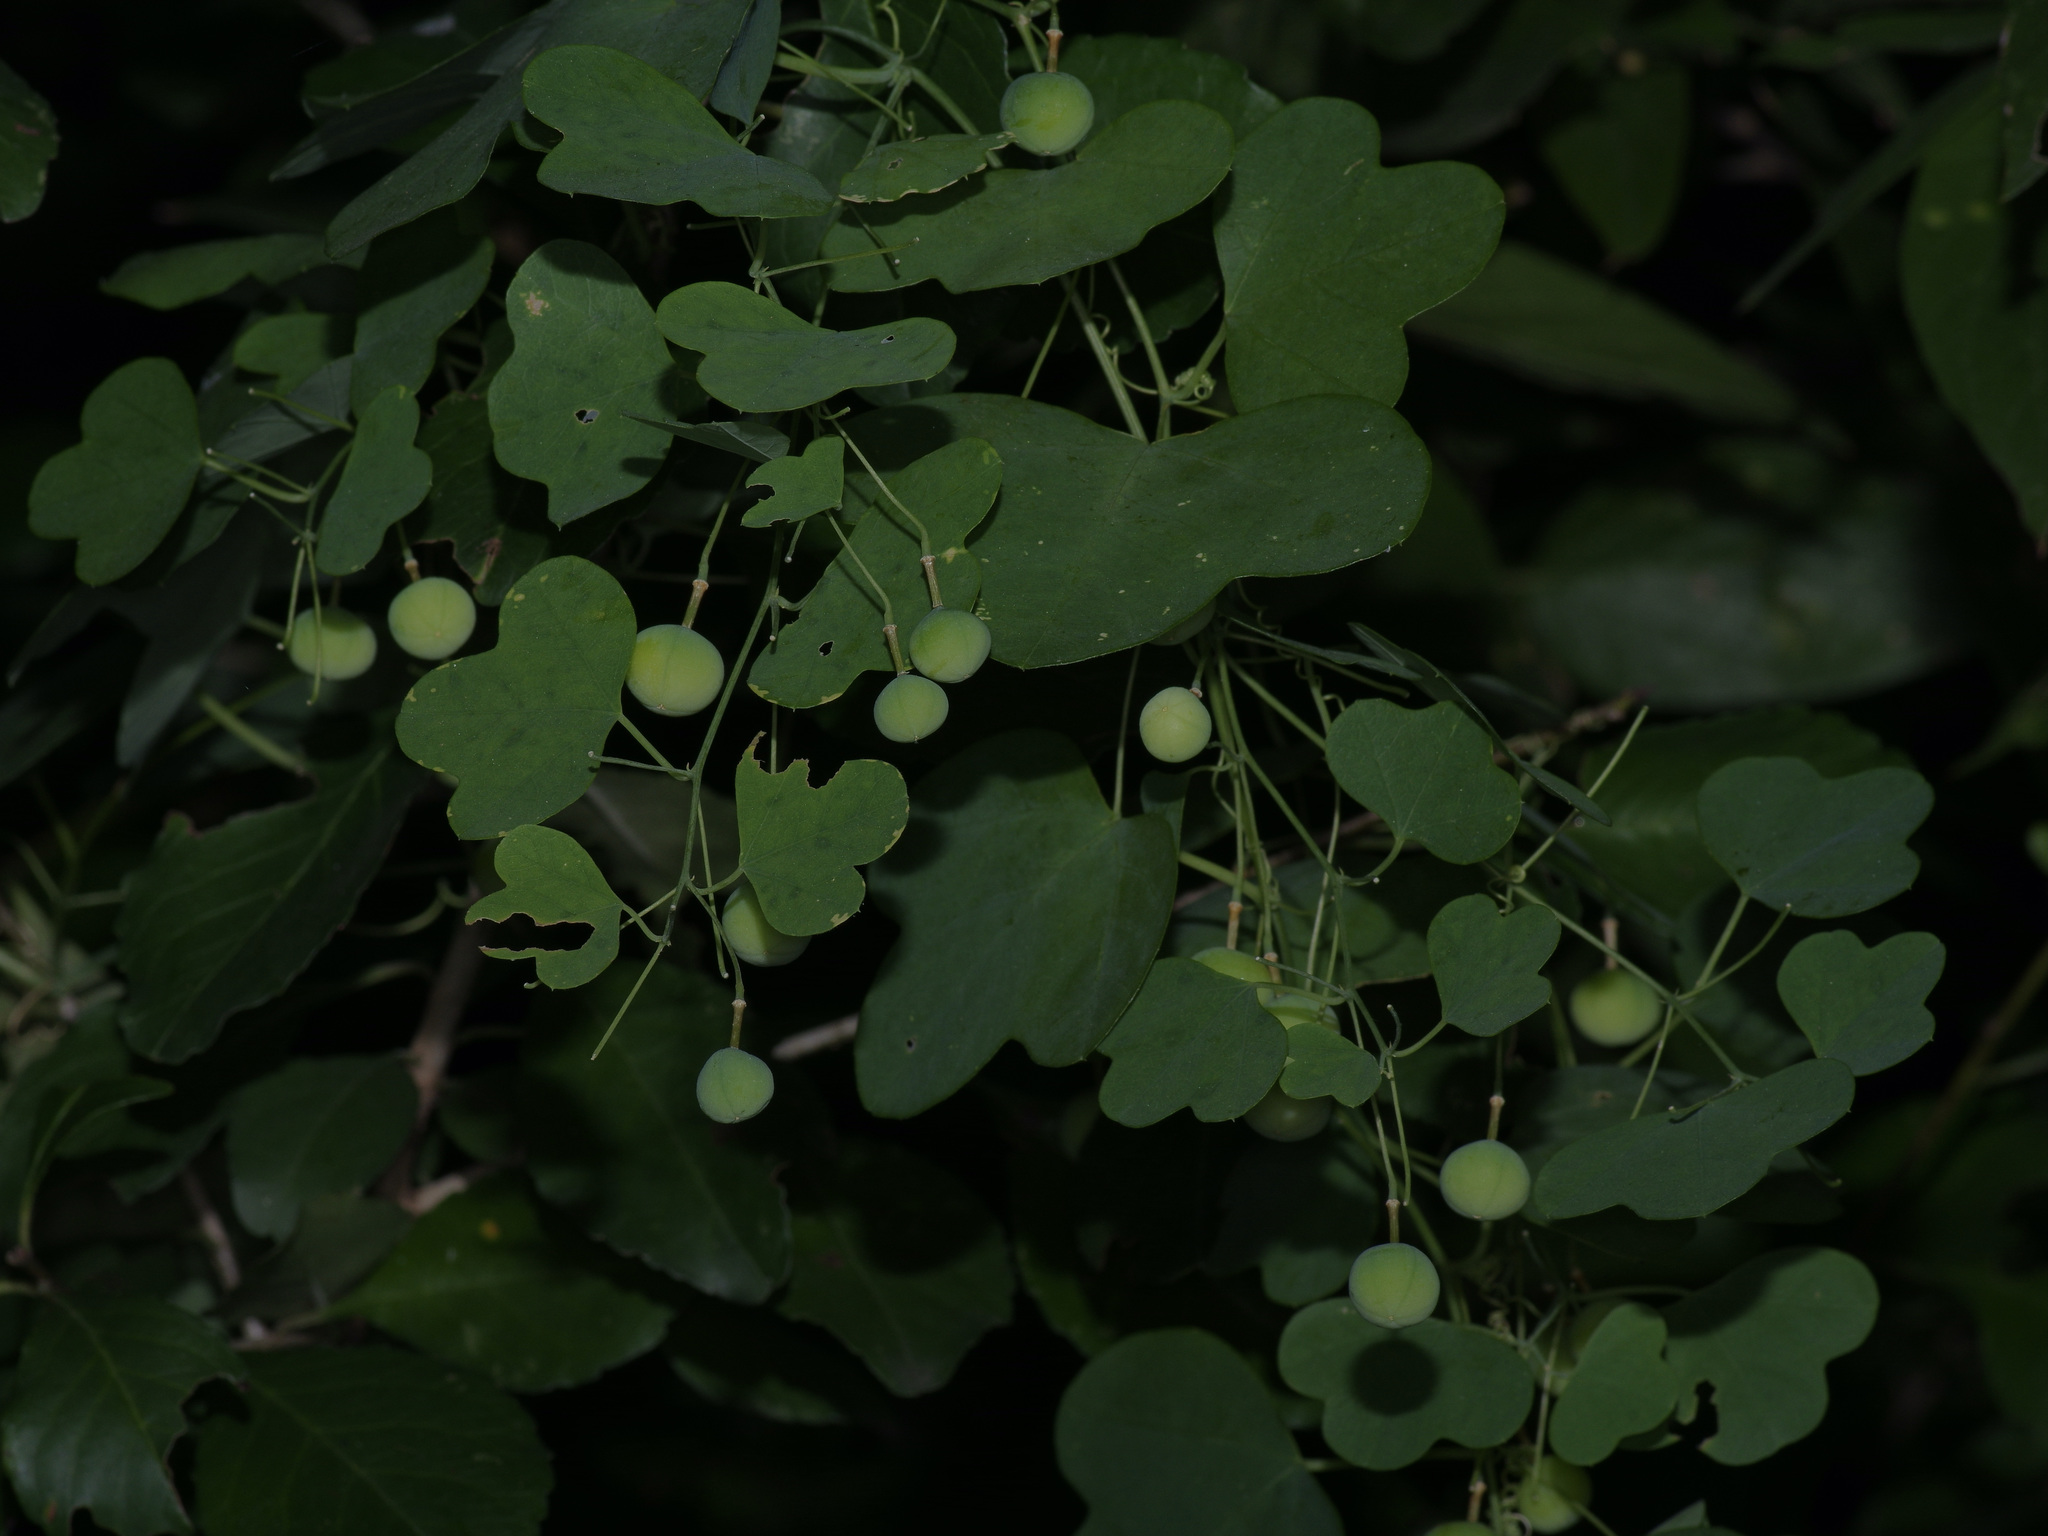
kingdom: Plantae
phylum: Tracheophyta
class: Magnoliopsida
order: Malpighiales
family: Passifloraceae
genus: Passiflora
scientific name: Passiflora lutea
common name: Yellow passionflower
